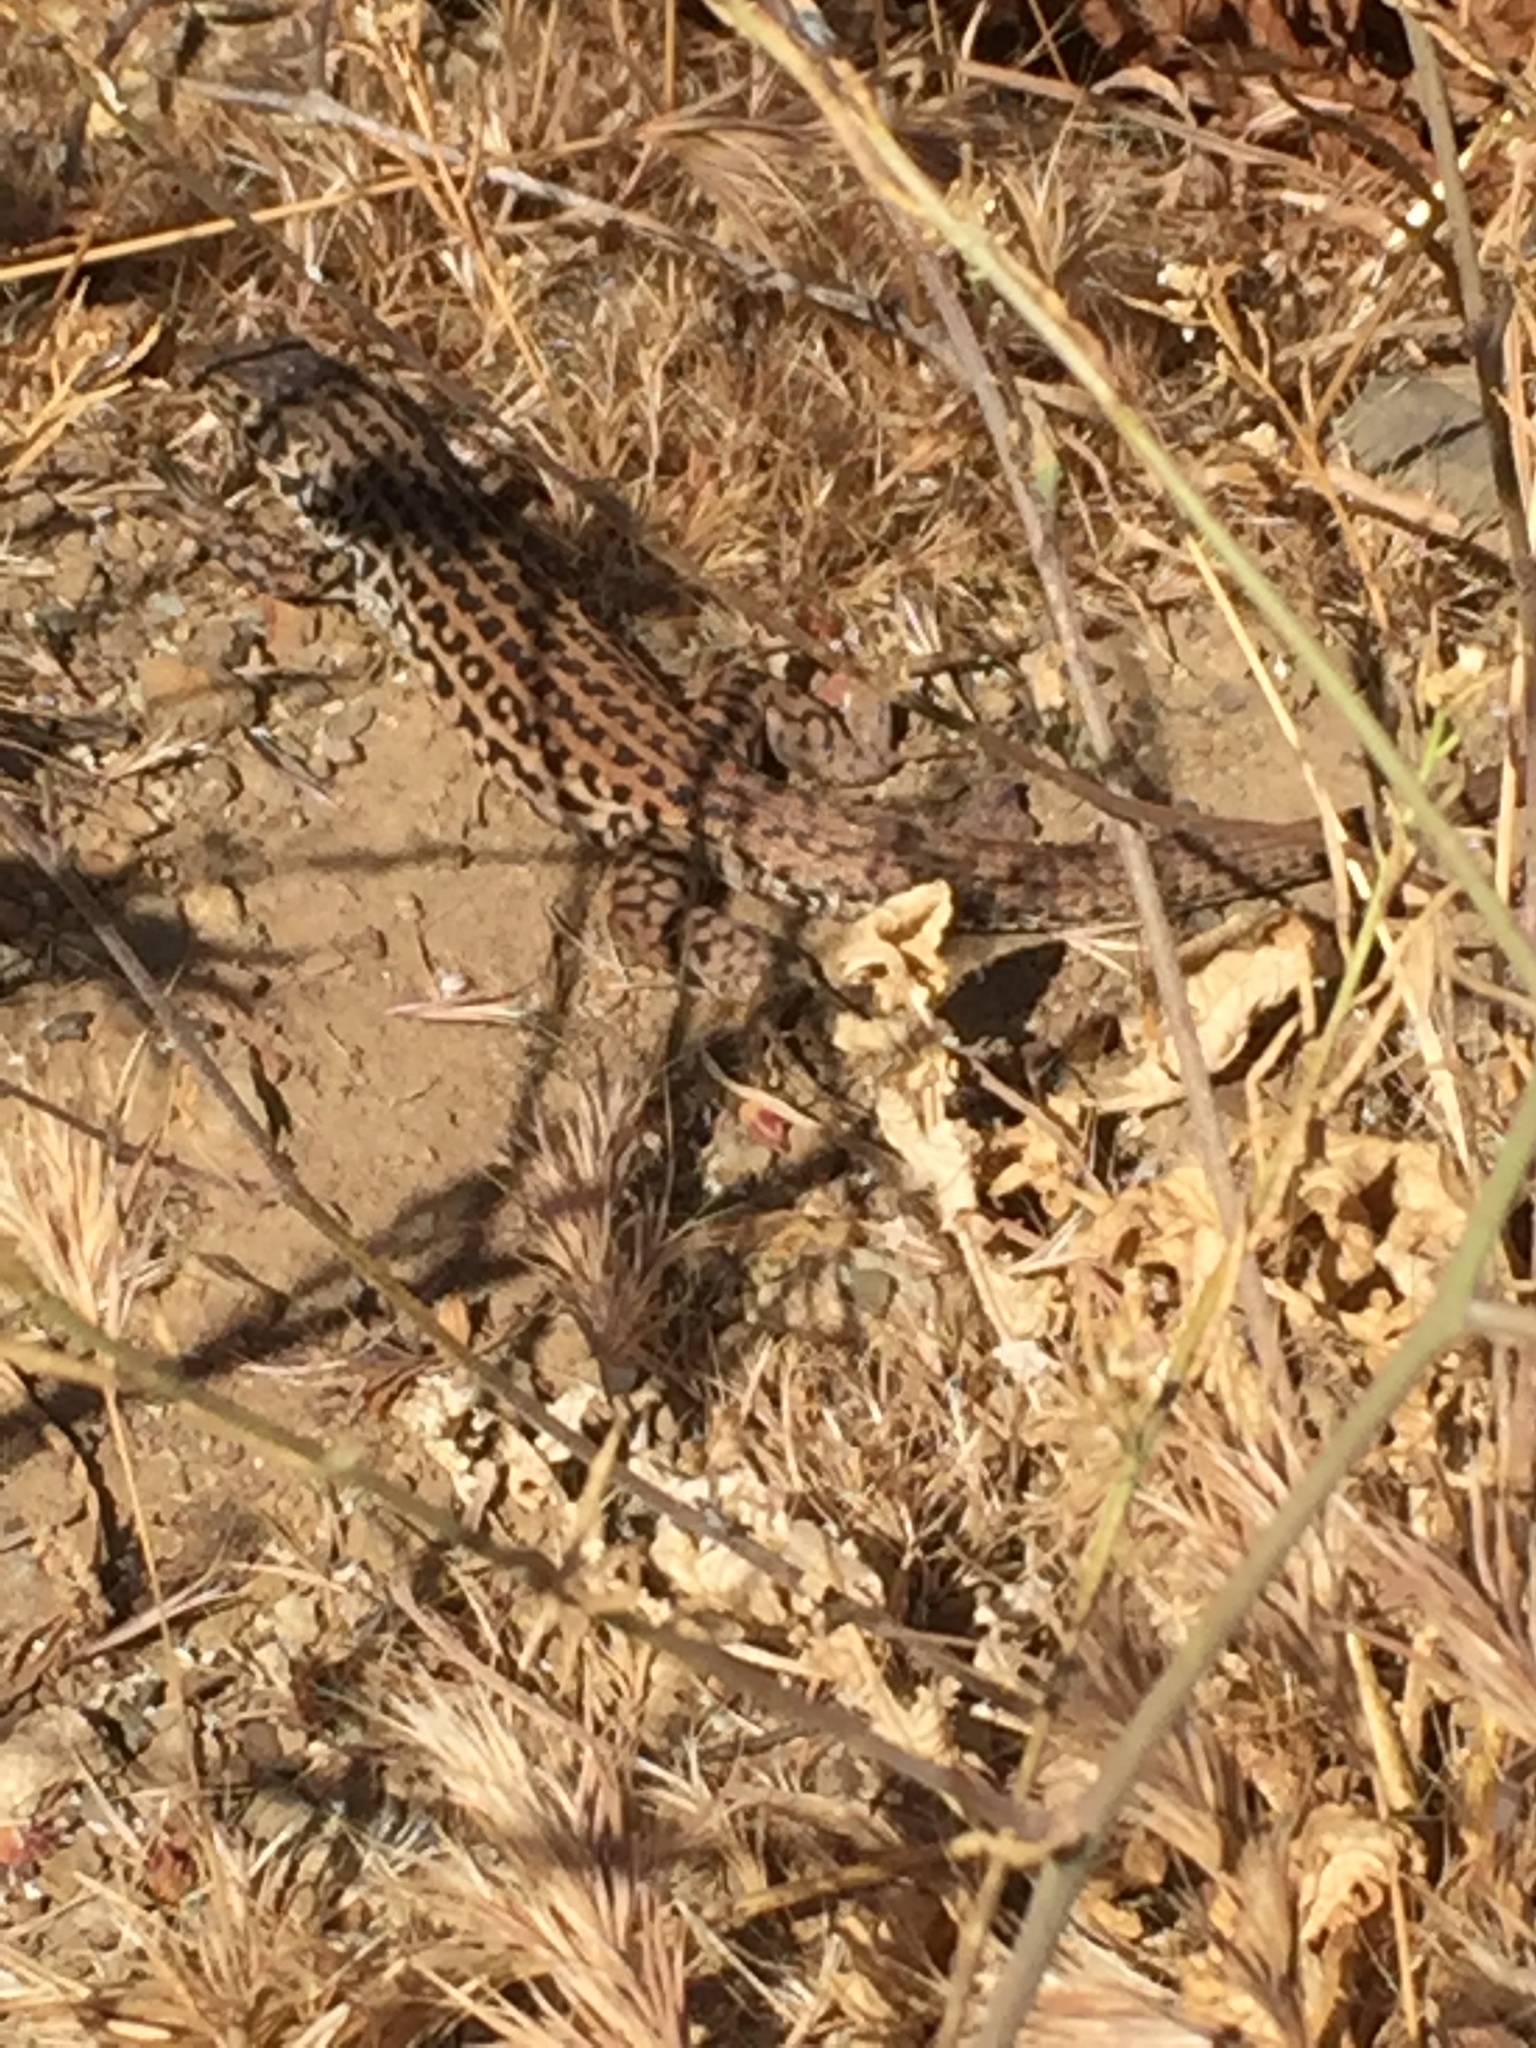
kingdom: Animalia
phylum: Chordata
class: Squamata
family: Teiidae
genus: Aspidoscelis
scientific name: Aspidoscelis tigris
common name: Tiger whiptail
